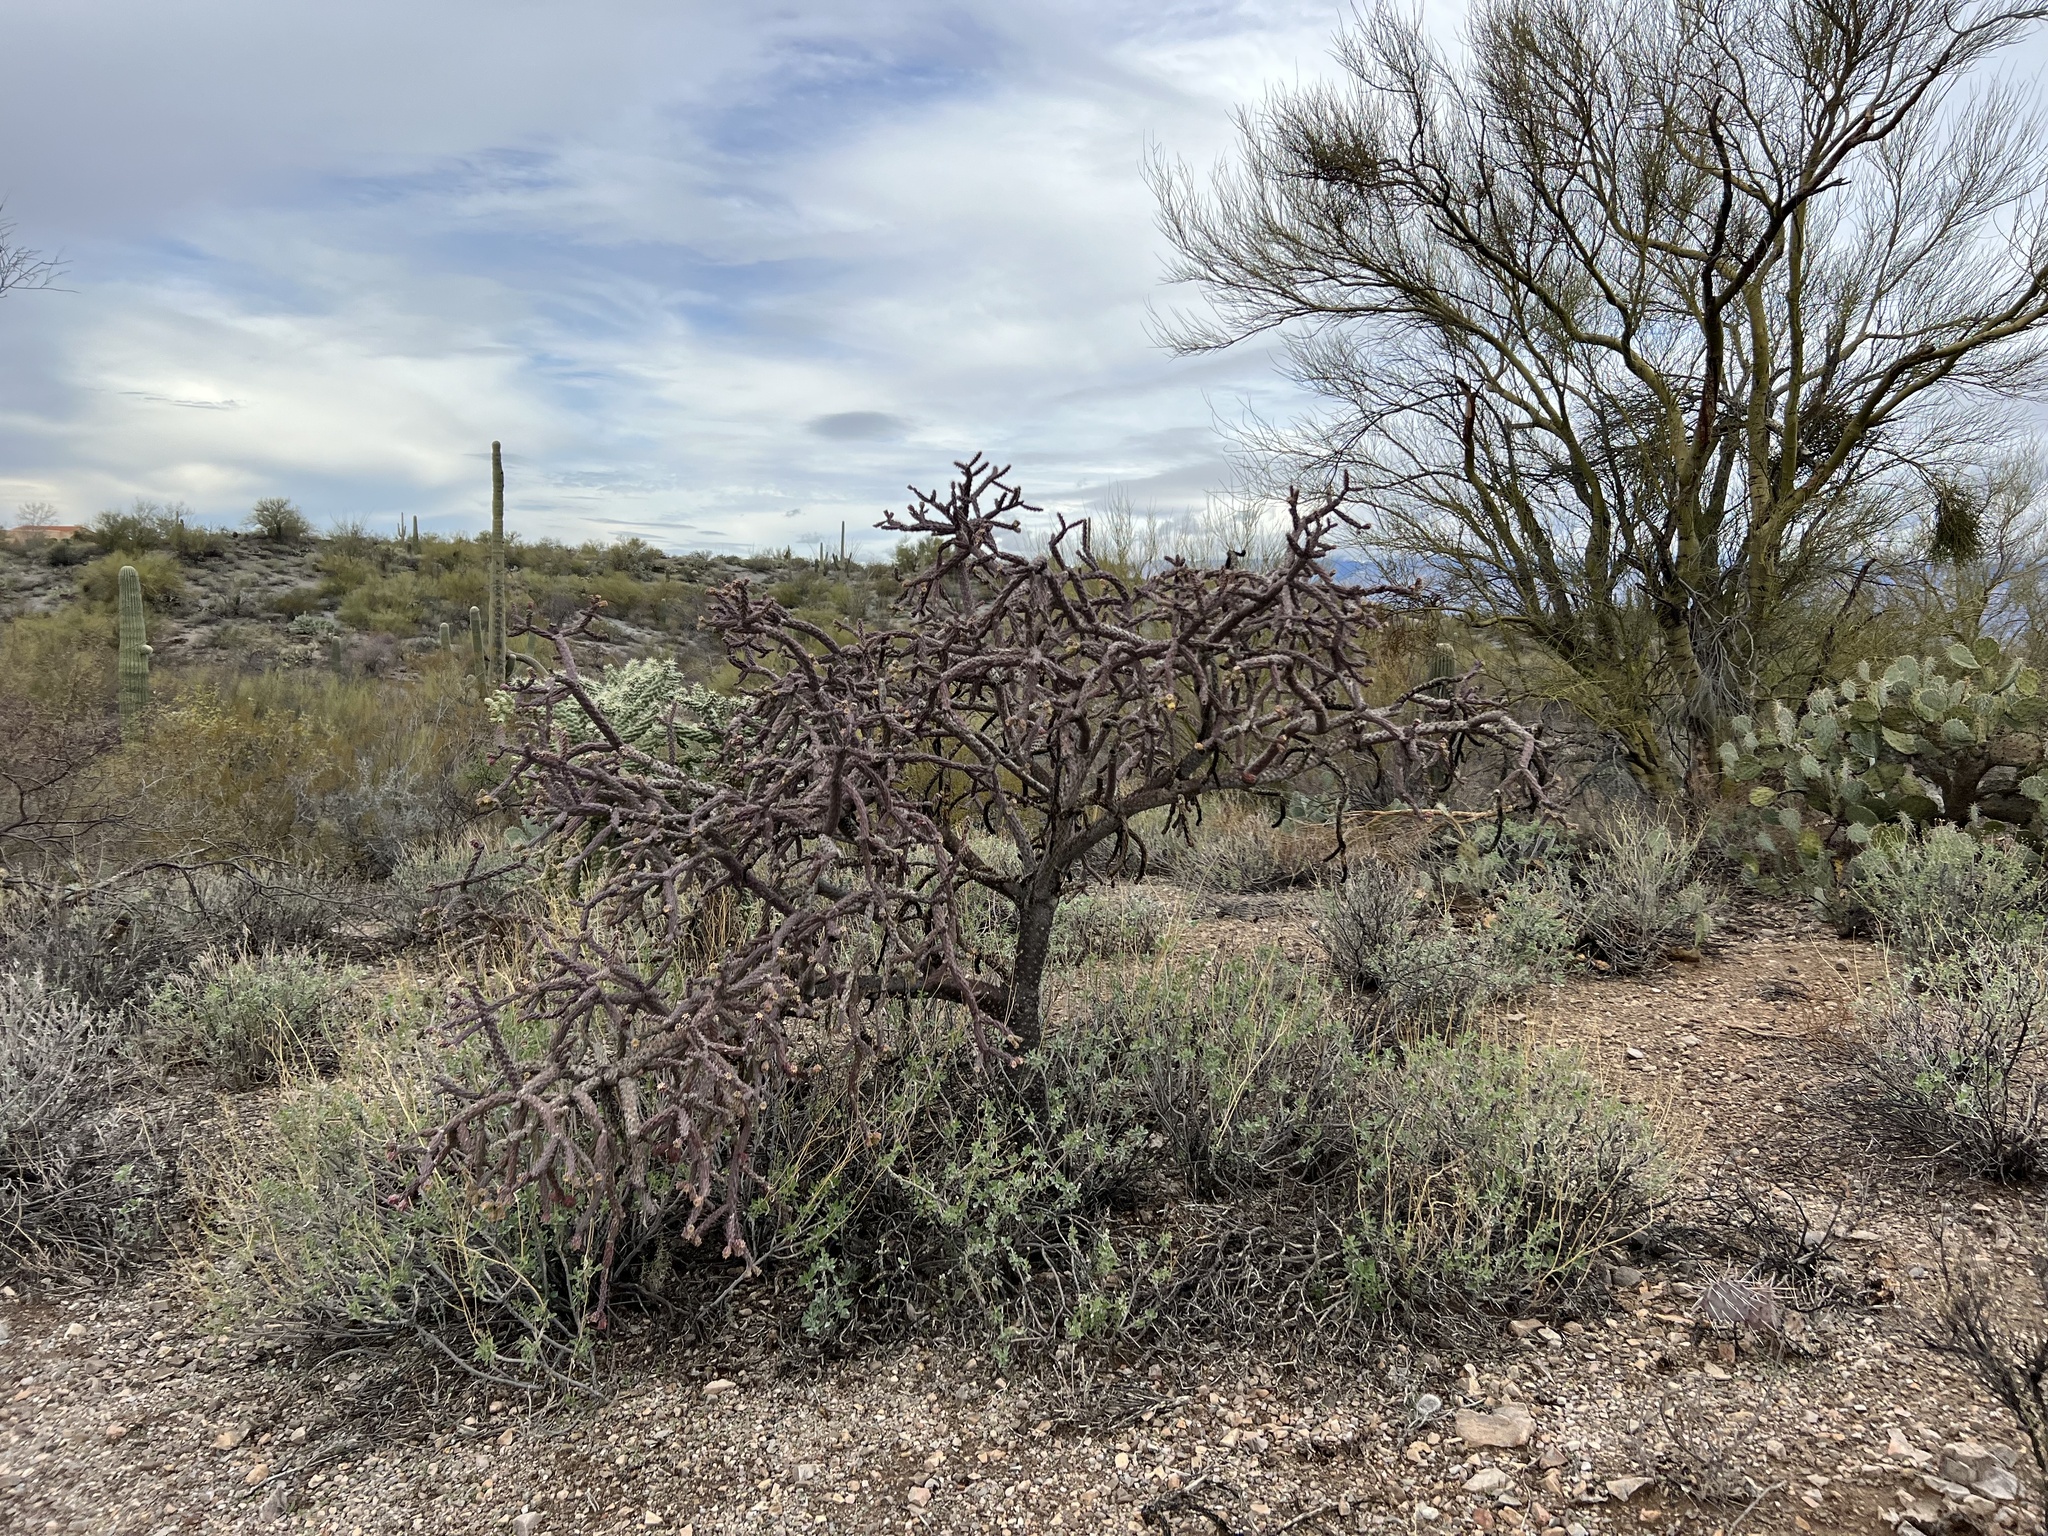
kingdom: Plantae
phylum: Tracheophyta
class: Magnoliopsida
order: Caryophyllales
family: Cactaceae
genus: Cylindropuntia
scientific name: Cylindropuntia thurberi
